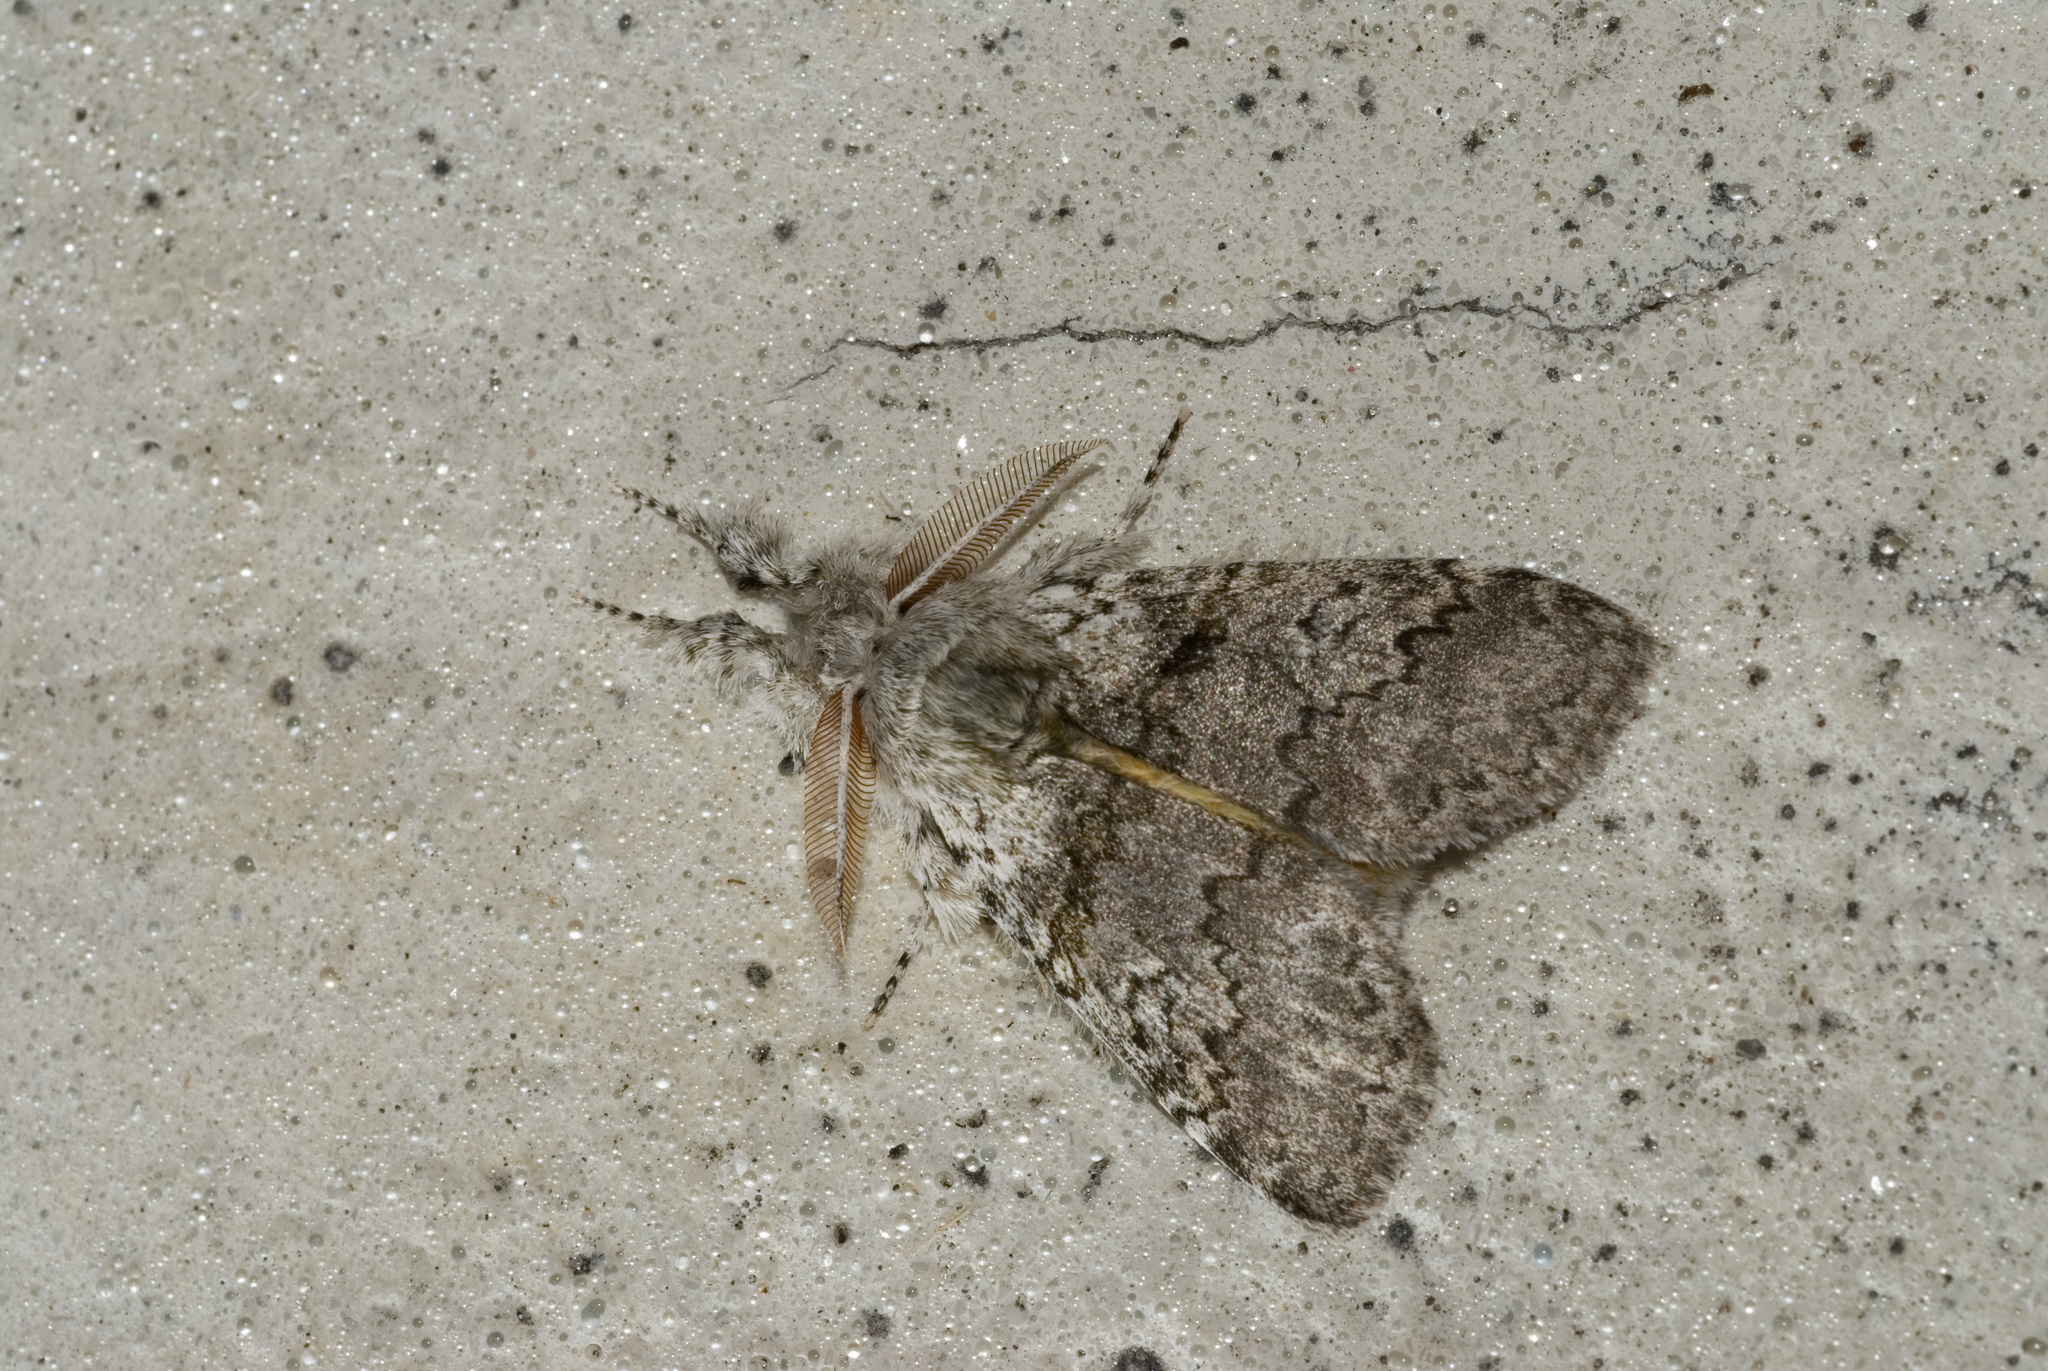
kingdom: Animalia
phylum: Arthropoda
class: Insecta
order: Lepidoptera
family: Erebidae
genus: Calliteara
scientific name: Calliteara arizana
